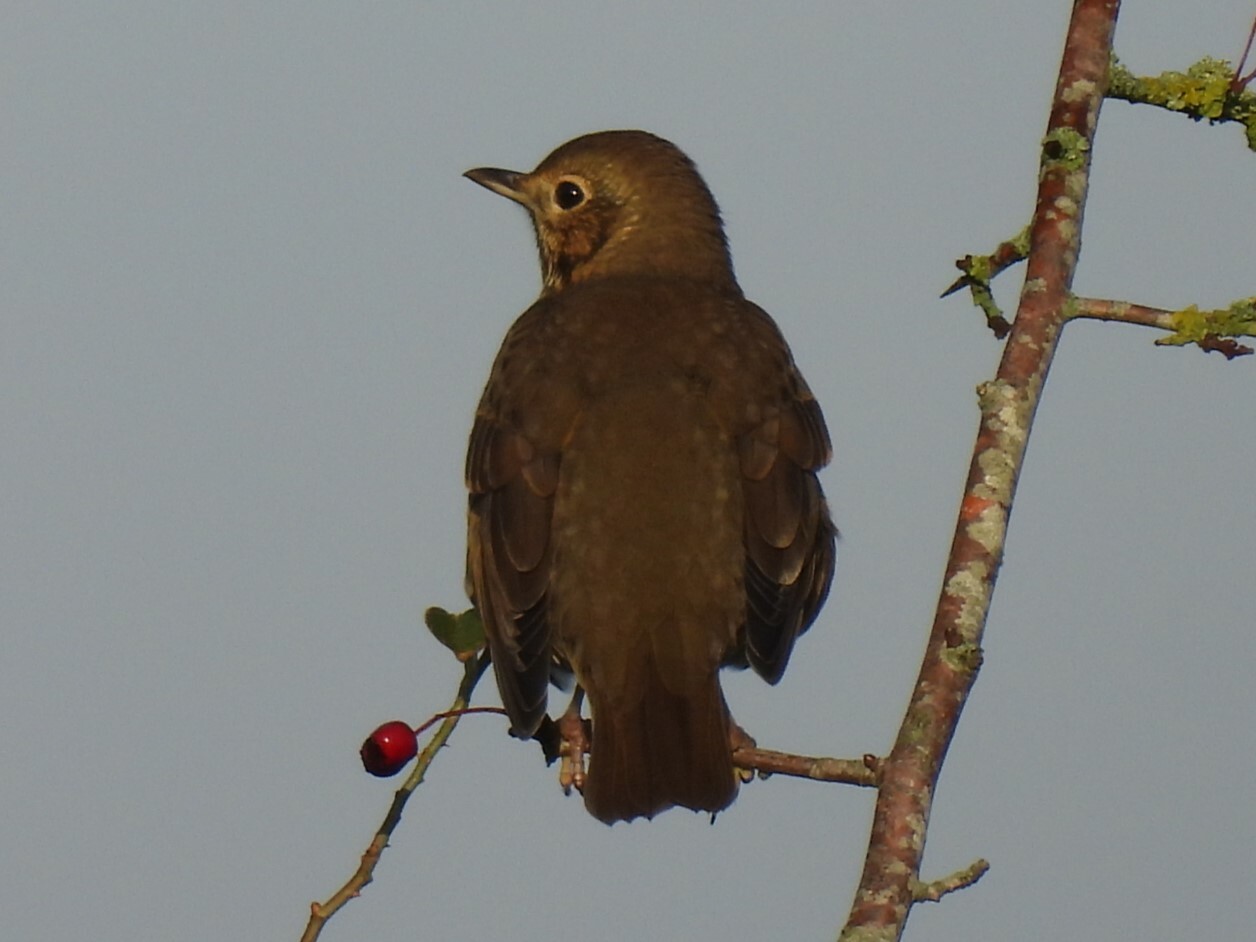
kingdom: Animalia
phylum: Chordata
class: Aves
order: Passeriformes
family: Turdidae
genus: Turdus
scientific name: Turdus philomelos
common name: Song thrush
